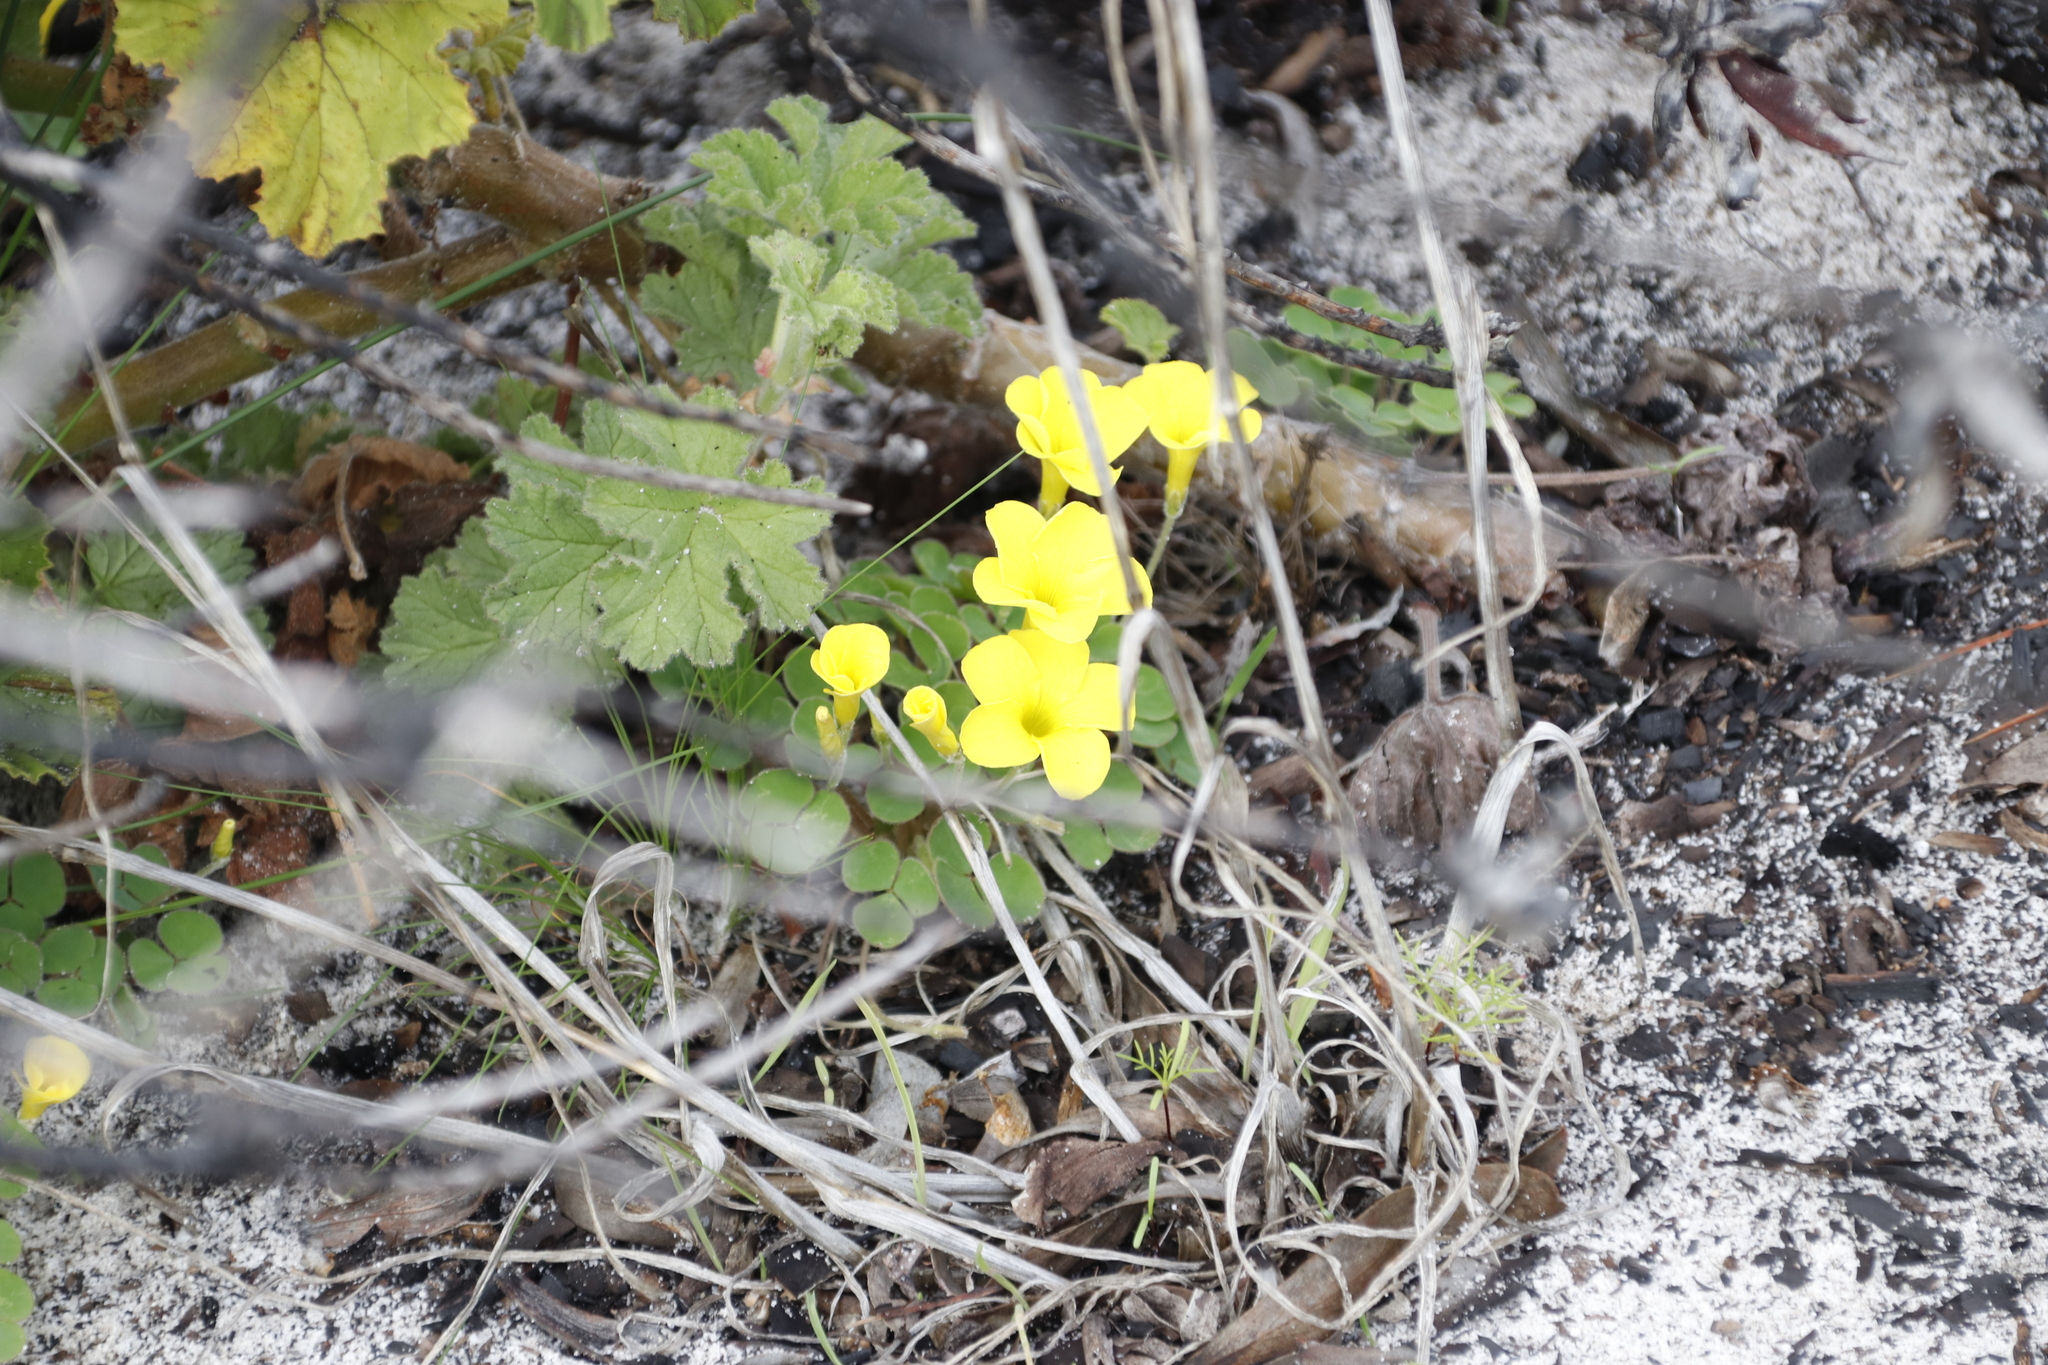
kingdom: Plantae
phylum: Tracheophyta
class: Magnoliopsida
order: Oxalidales
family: Oxalidaceae
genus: Oxalis
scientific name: Oxalis luteola
